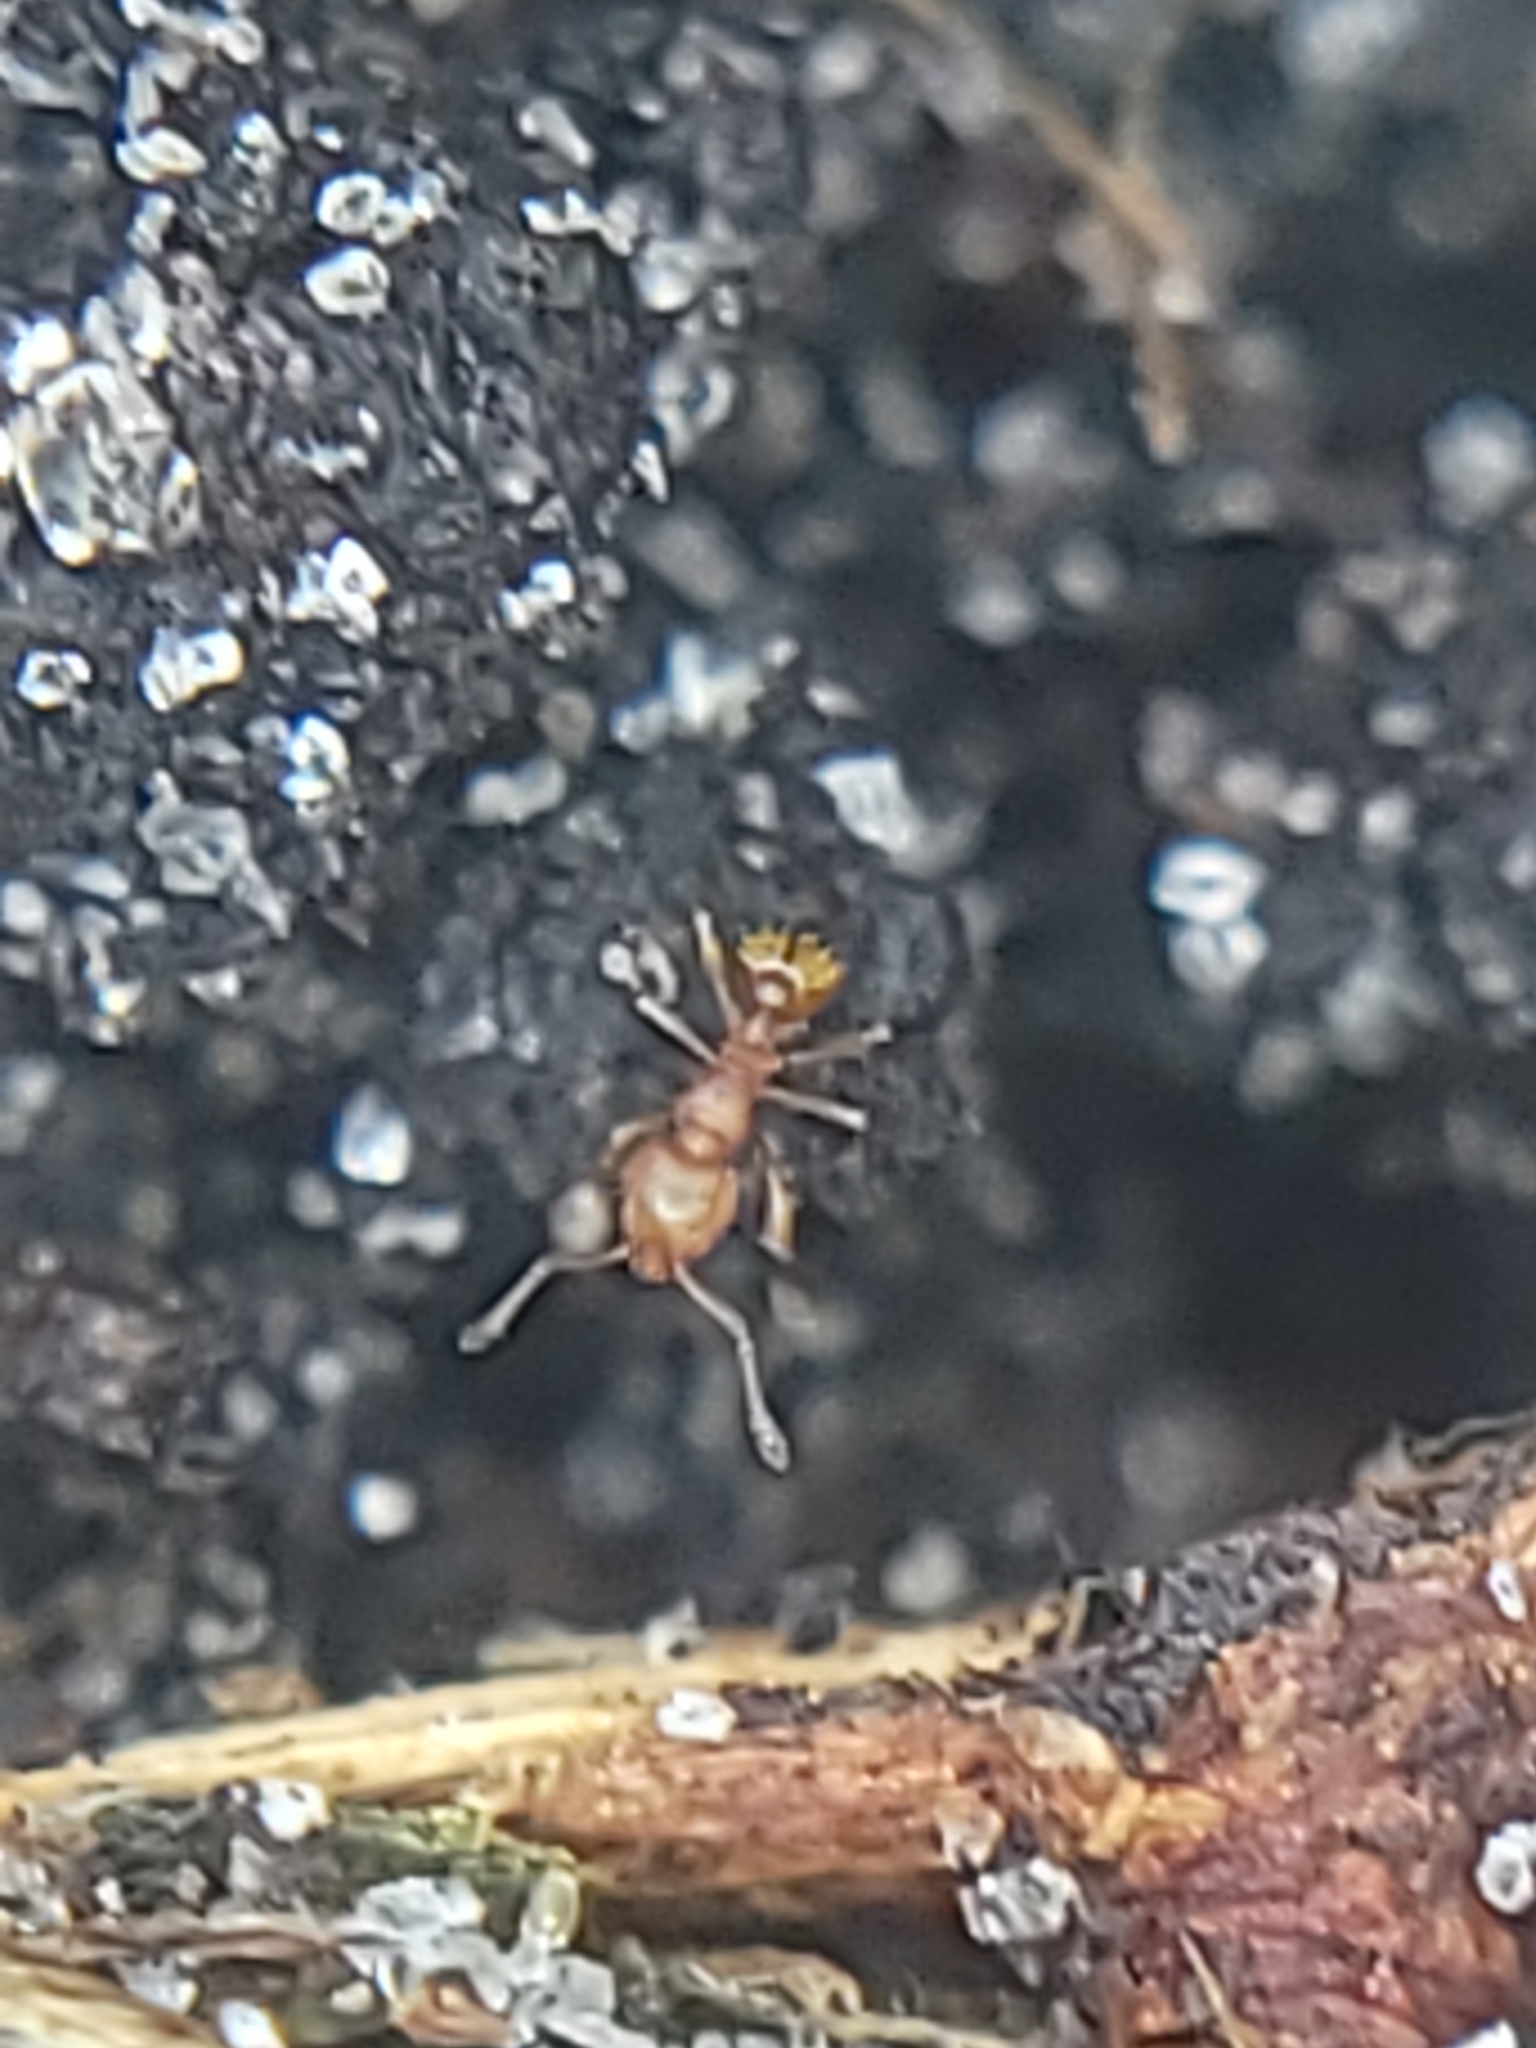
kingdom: Animalia
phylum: Arthropoda
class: Insecta
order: Hymenoptera
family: Formicidae
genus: Wasmannia
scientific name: Wasmannia auropunctata
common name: Little fire ant
